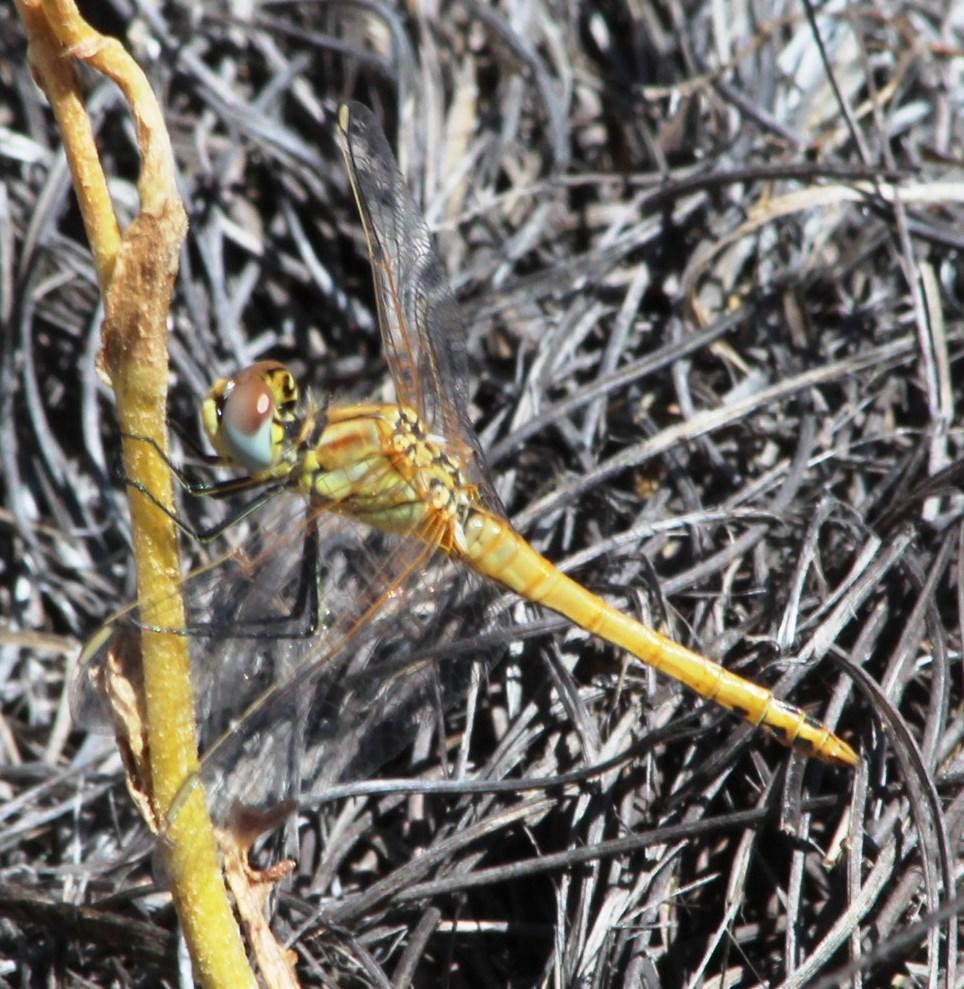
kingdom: Animalia
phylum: Arthropoda
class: Insecta
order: Odonata
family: Libellulidae
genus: Sympetrum
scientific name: Sympetrum fonscolombii
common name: Red-veined darter
